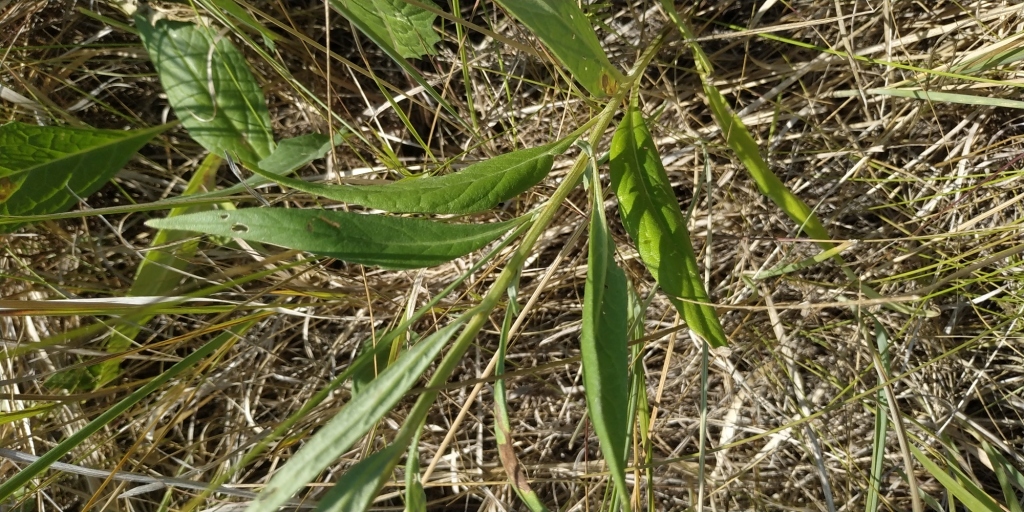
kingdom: Plantae
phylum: Tracheophyta
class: Magnoliopsida
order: Asterales
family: Asteraceae
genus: Saussurea
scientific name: Saussurea amara
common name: Alberta sawwort
